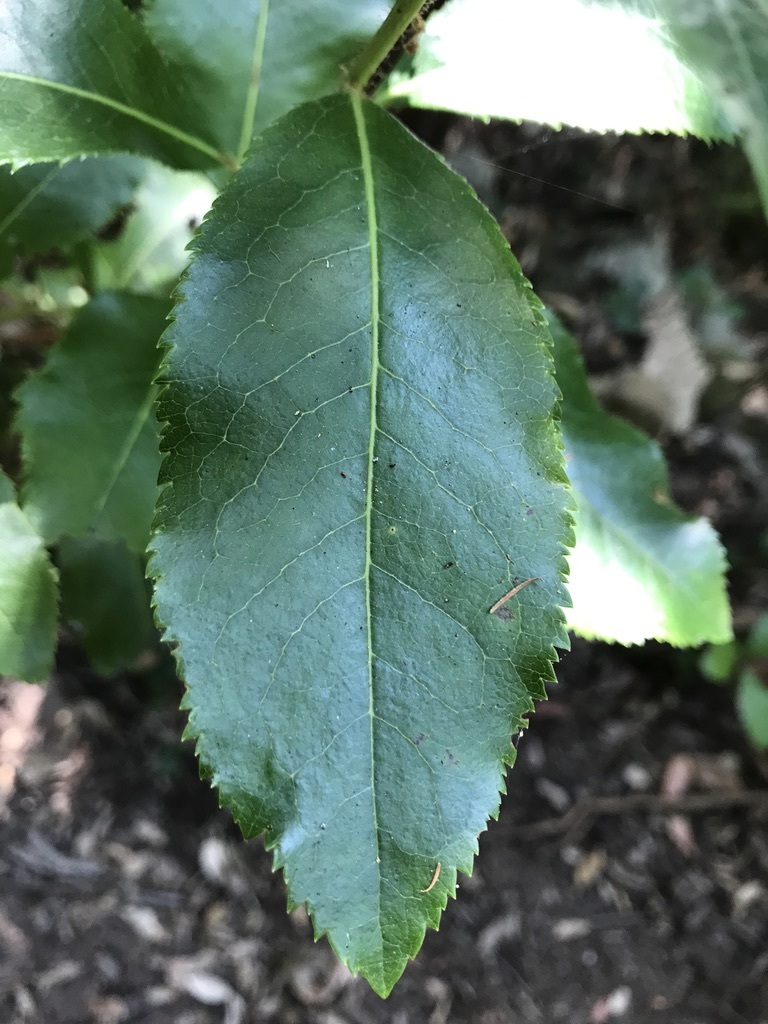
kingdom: Plantae
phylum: Tracheophyta
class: Magnoliopsida
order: Ericales
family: Ericaceae
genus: Arbutus
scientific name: Arbutus unedo
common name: Strawberry-tree
